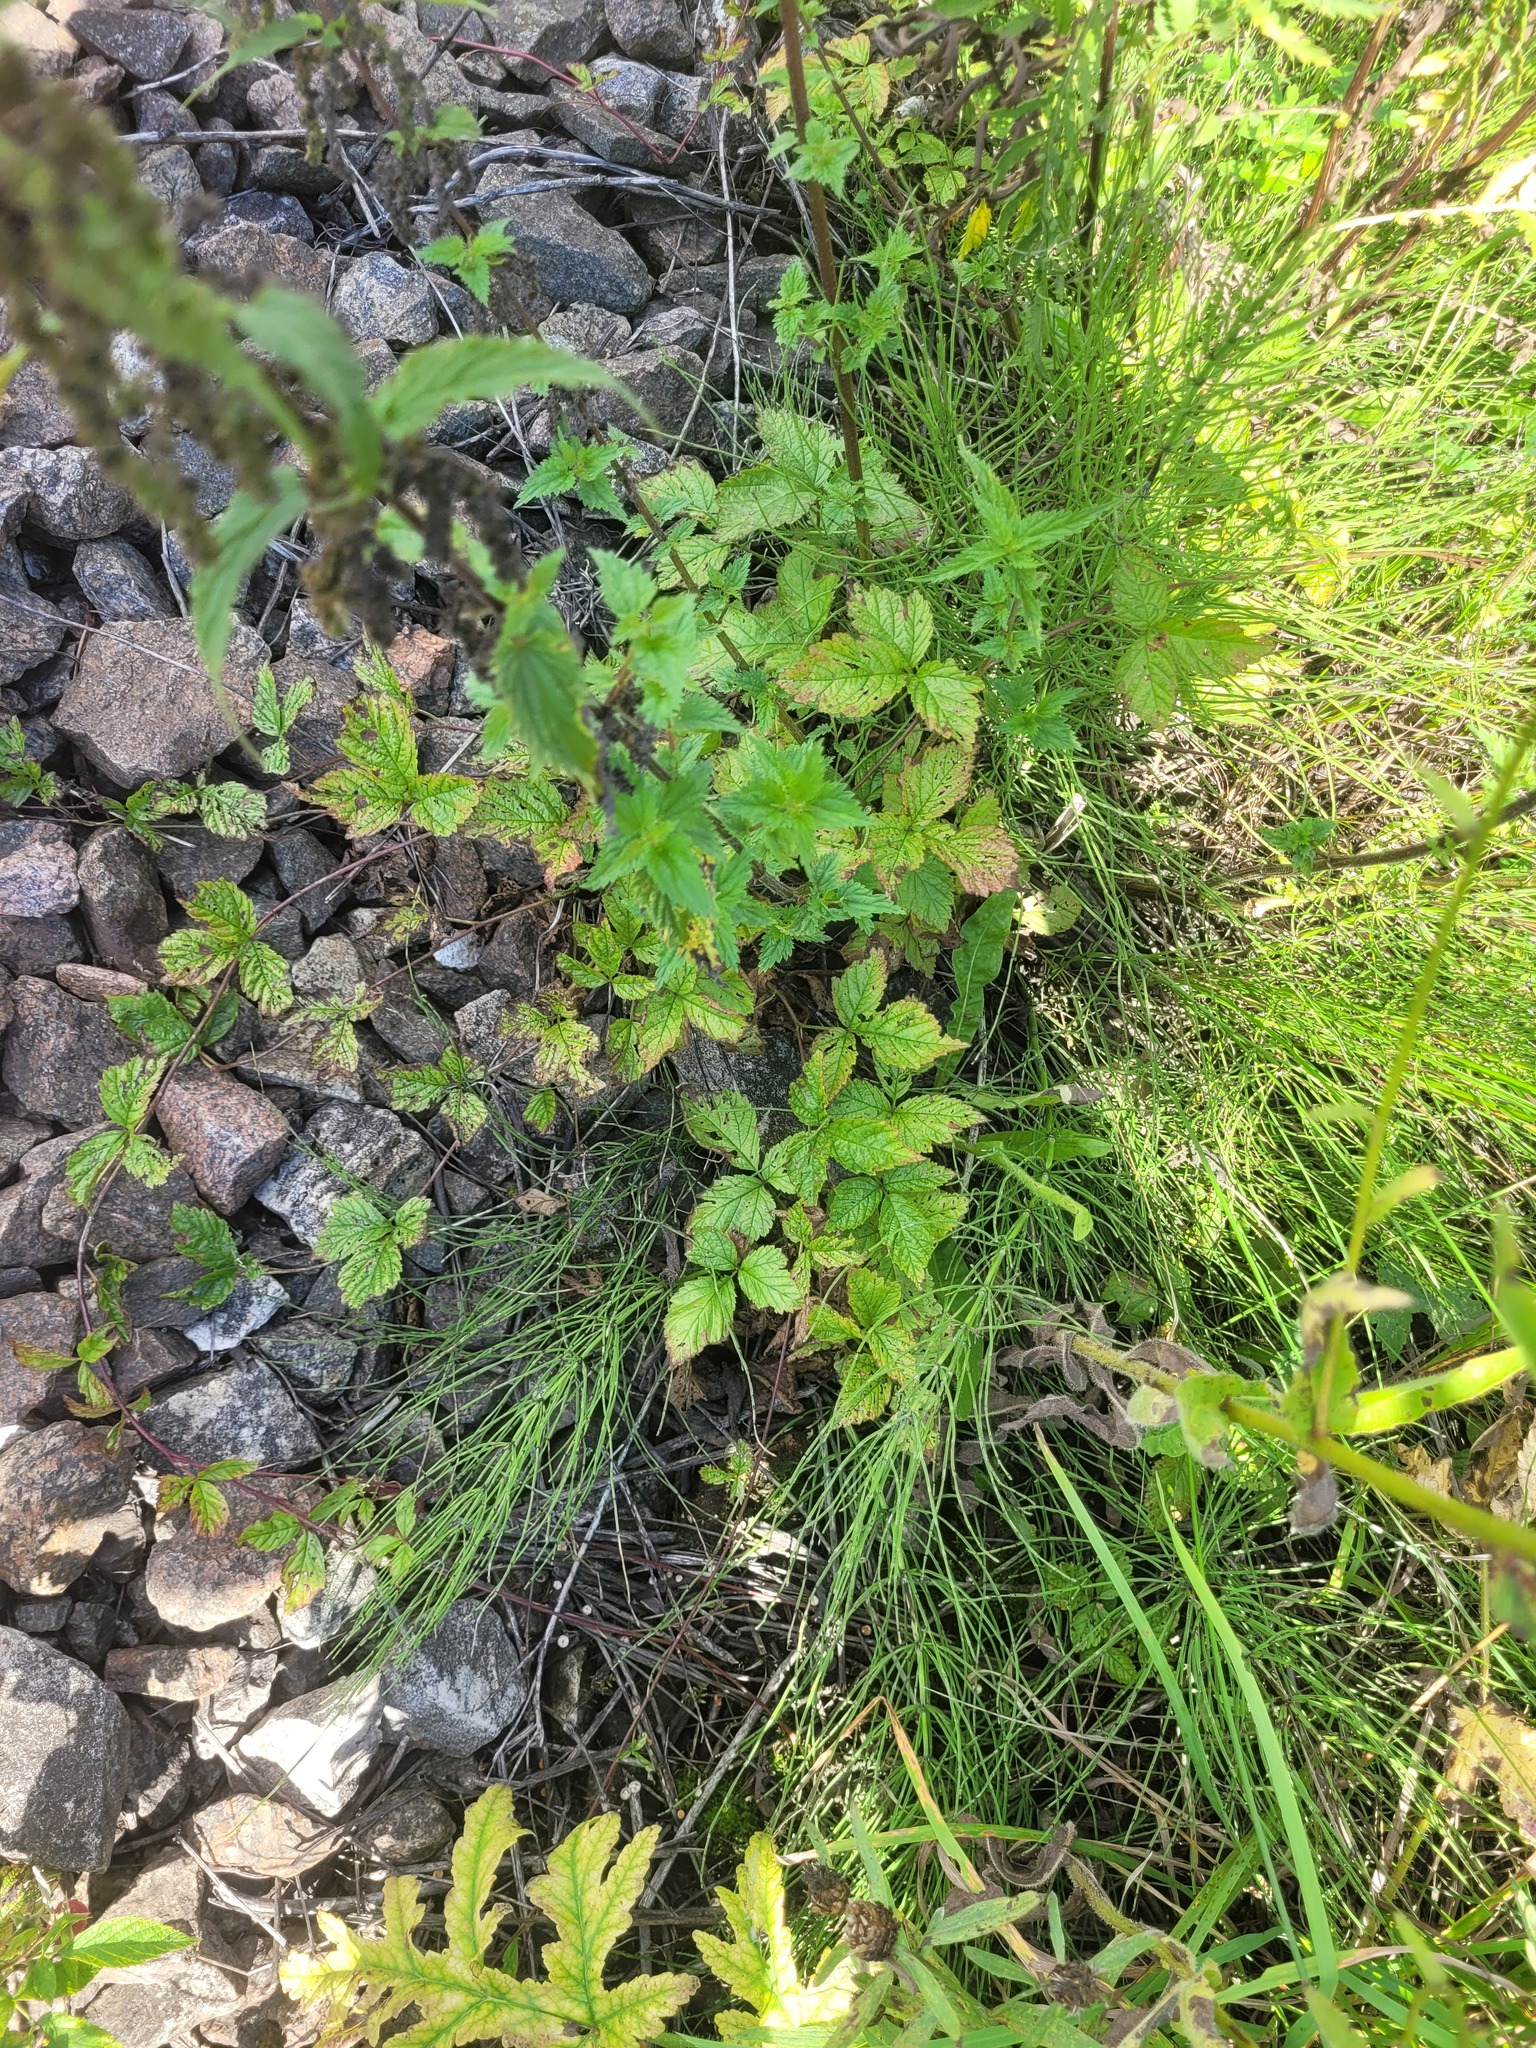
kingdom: Plantae
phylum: Tracheophyta
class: Magnoliopsida
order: Rosales
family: Rosaceae
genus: Rubus
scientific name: Rubus saxatilis
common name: Stone bramble
